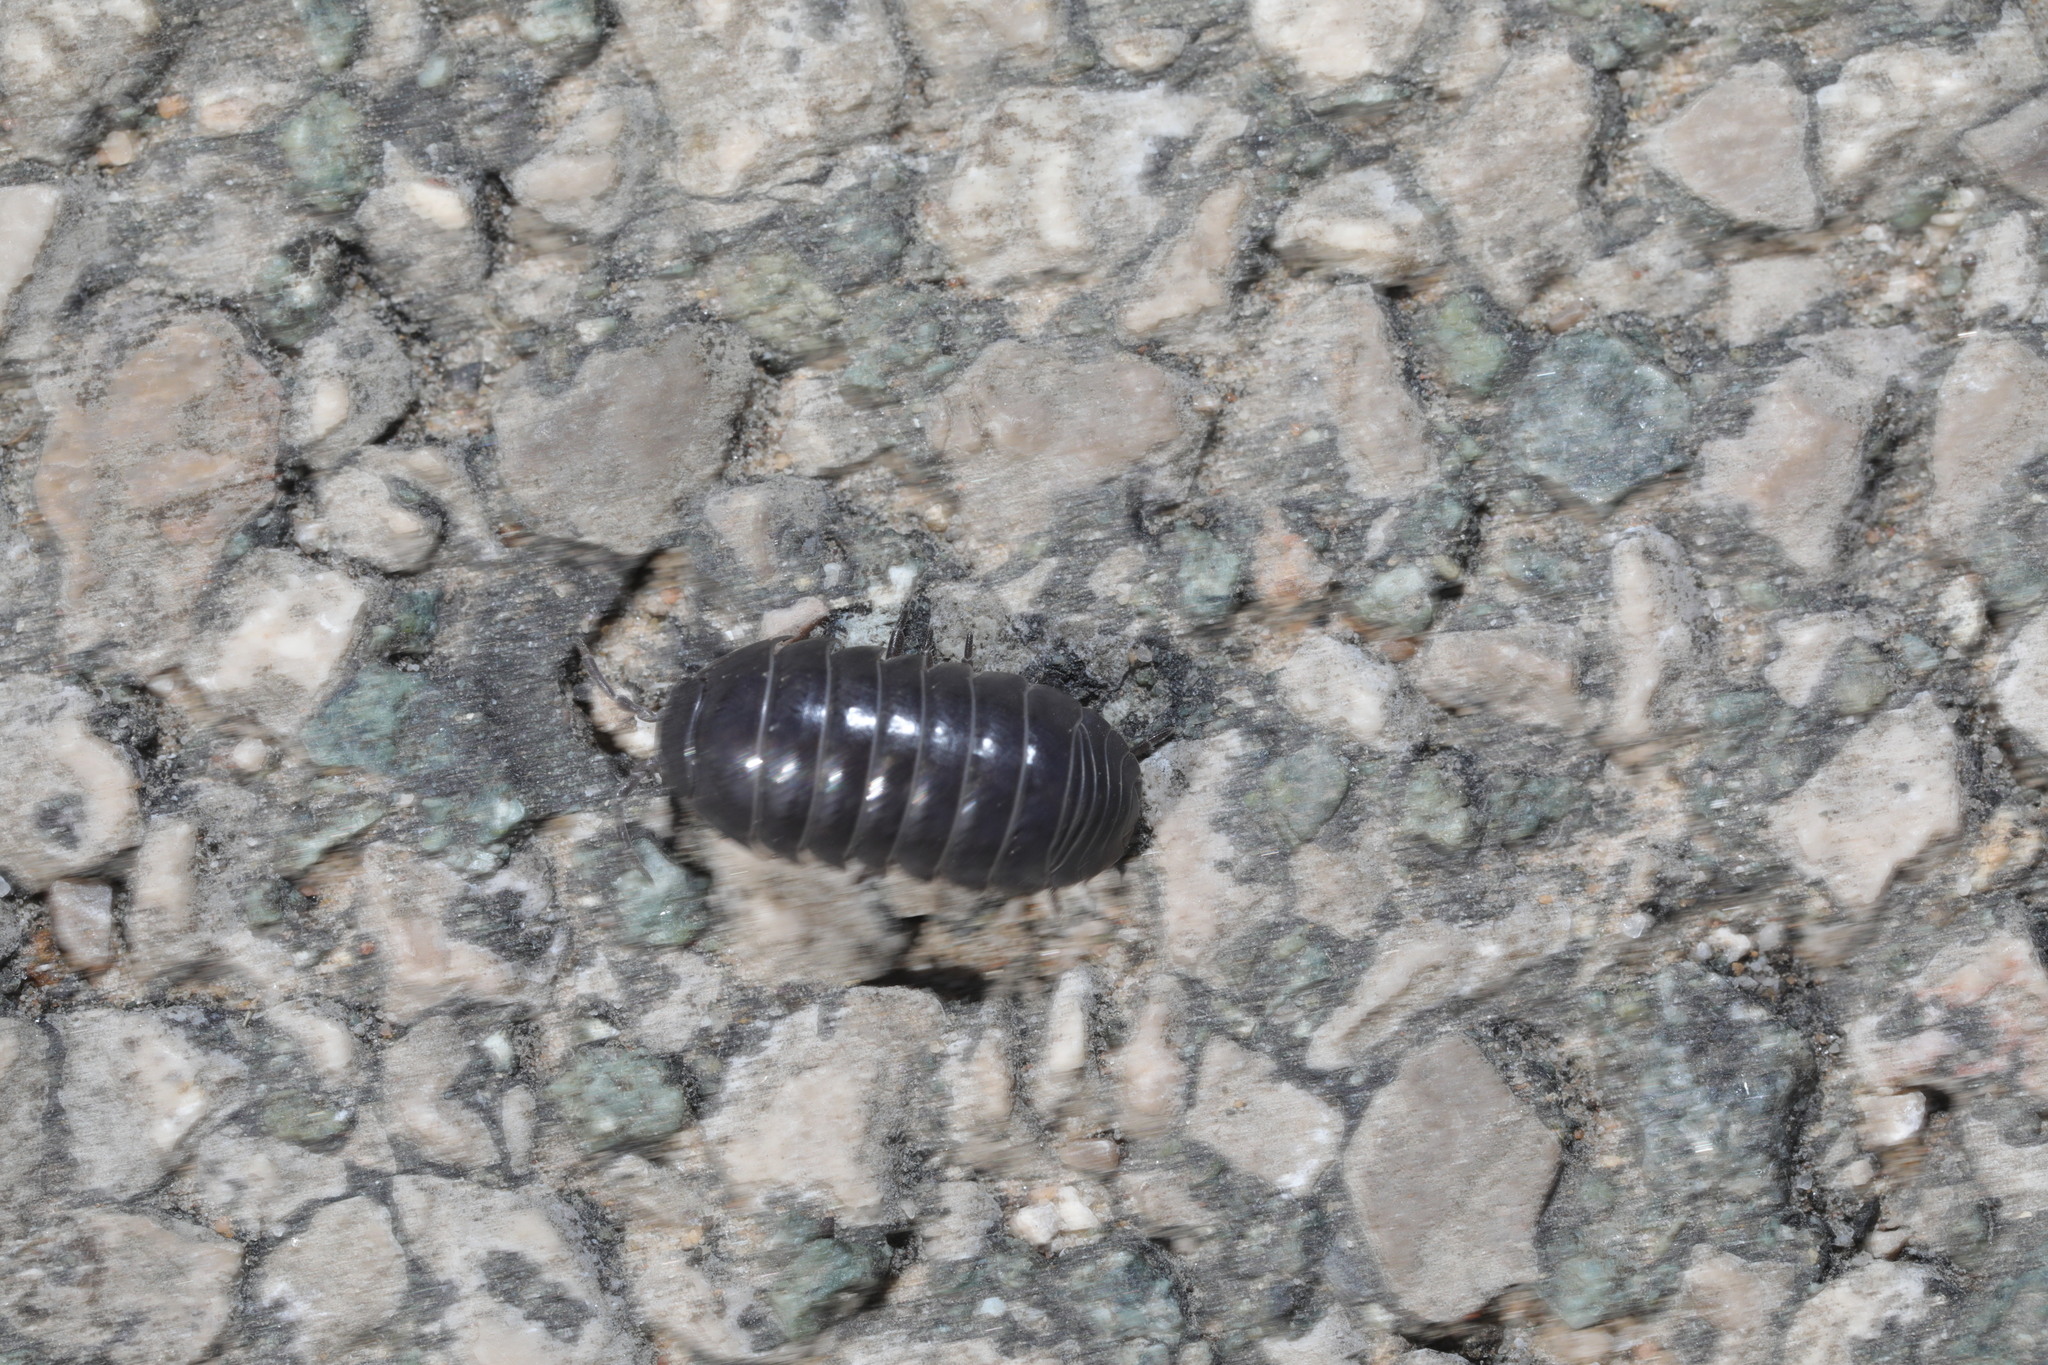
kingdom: Animalia
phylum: Arthropoda
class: Malacostraca
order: Isopoda
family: Armadillidiidae
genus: Armadillidium
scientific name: Armadillidium vulgare
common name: Common pill woodlouse
